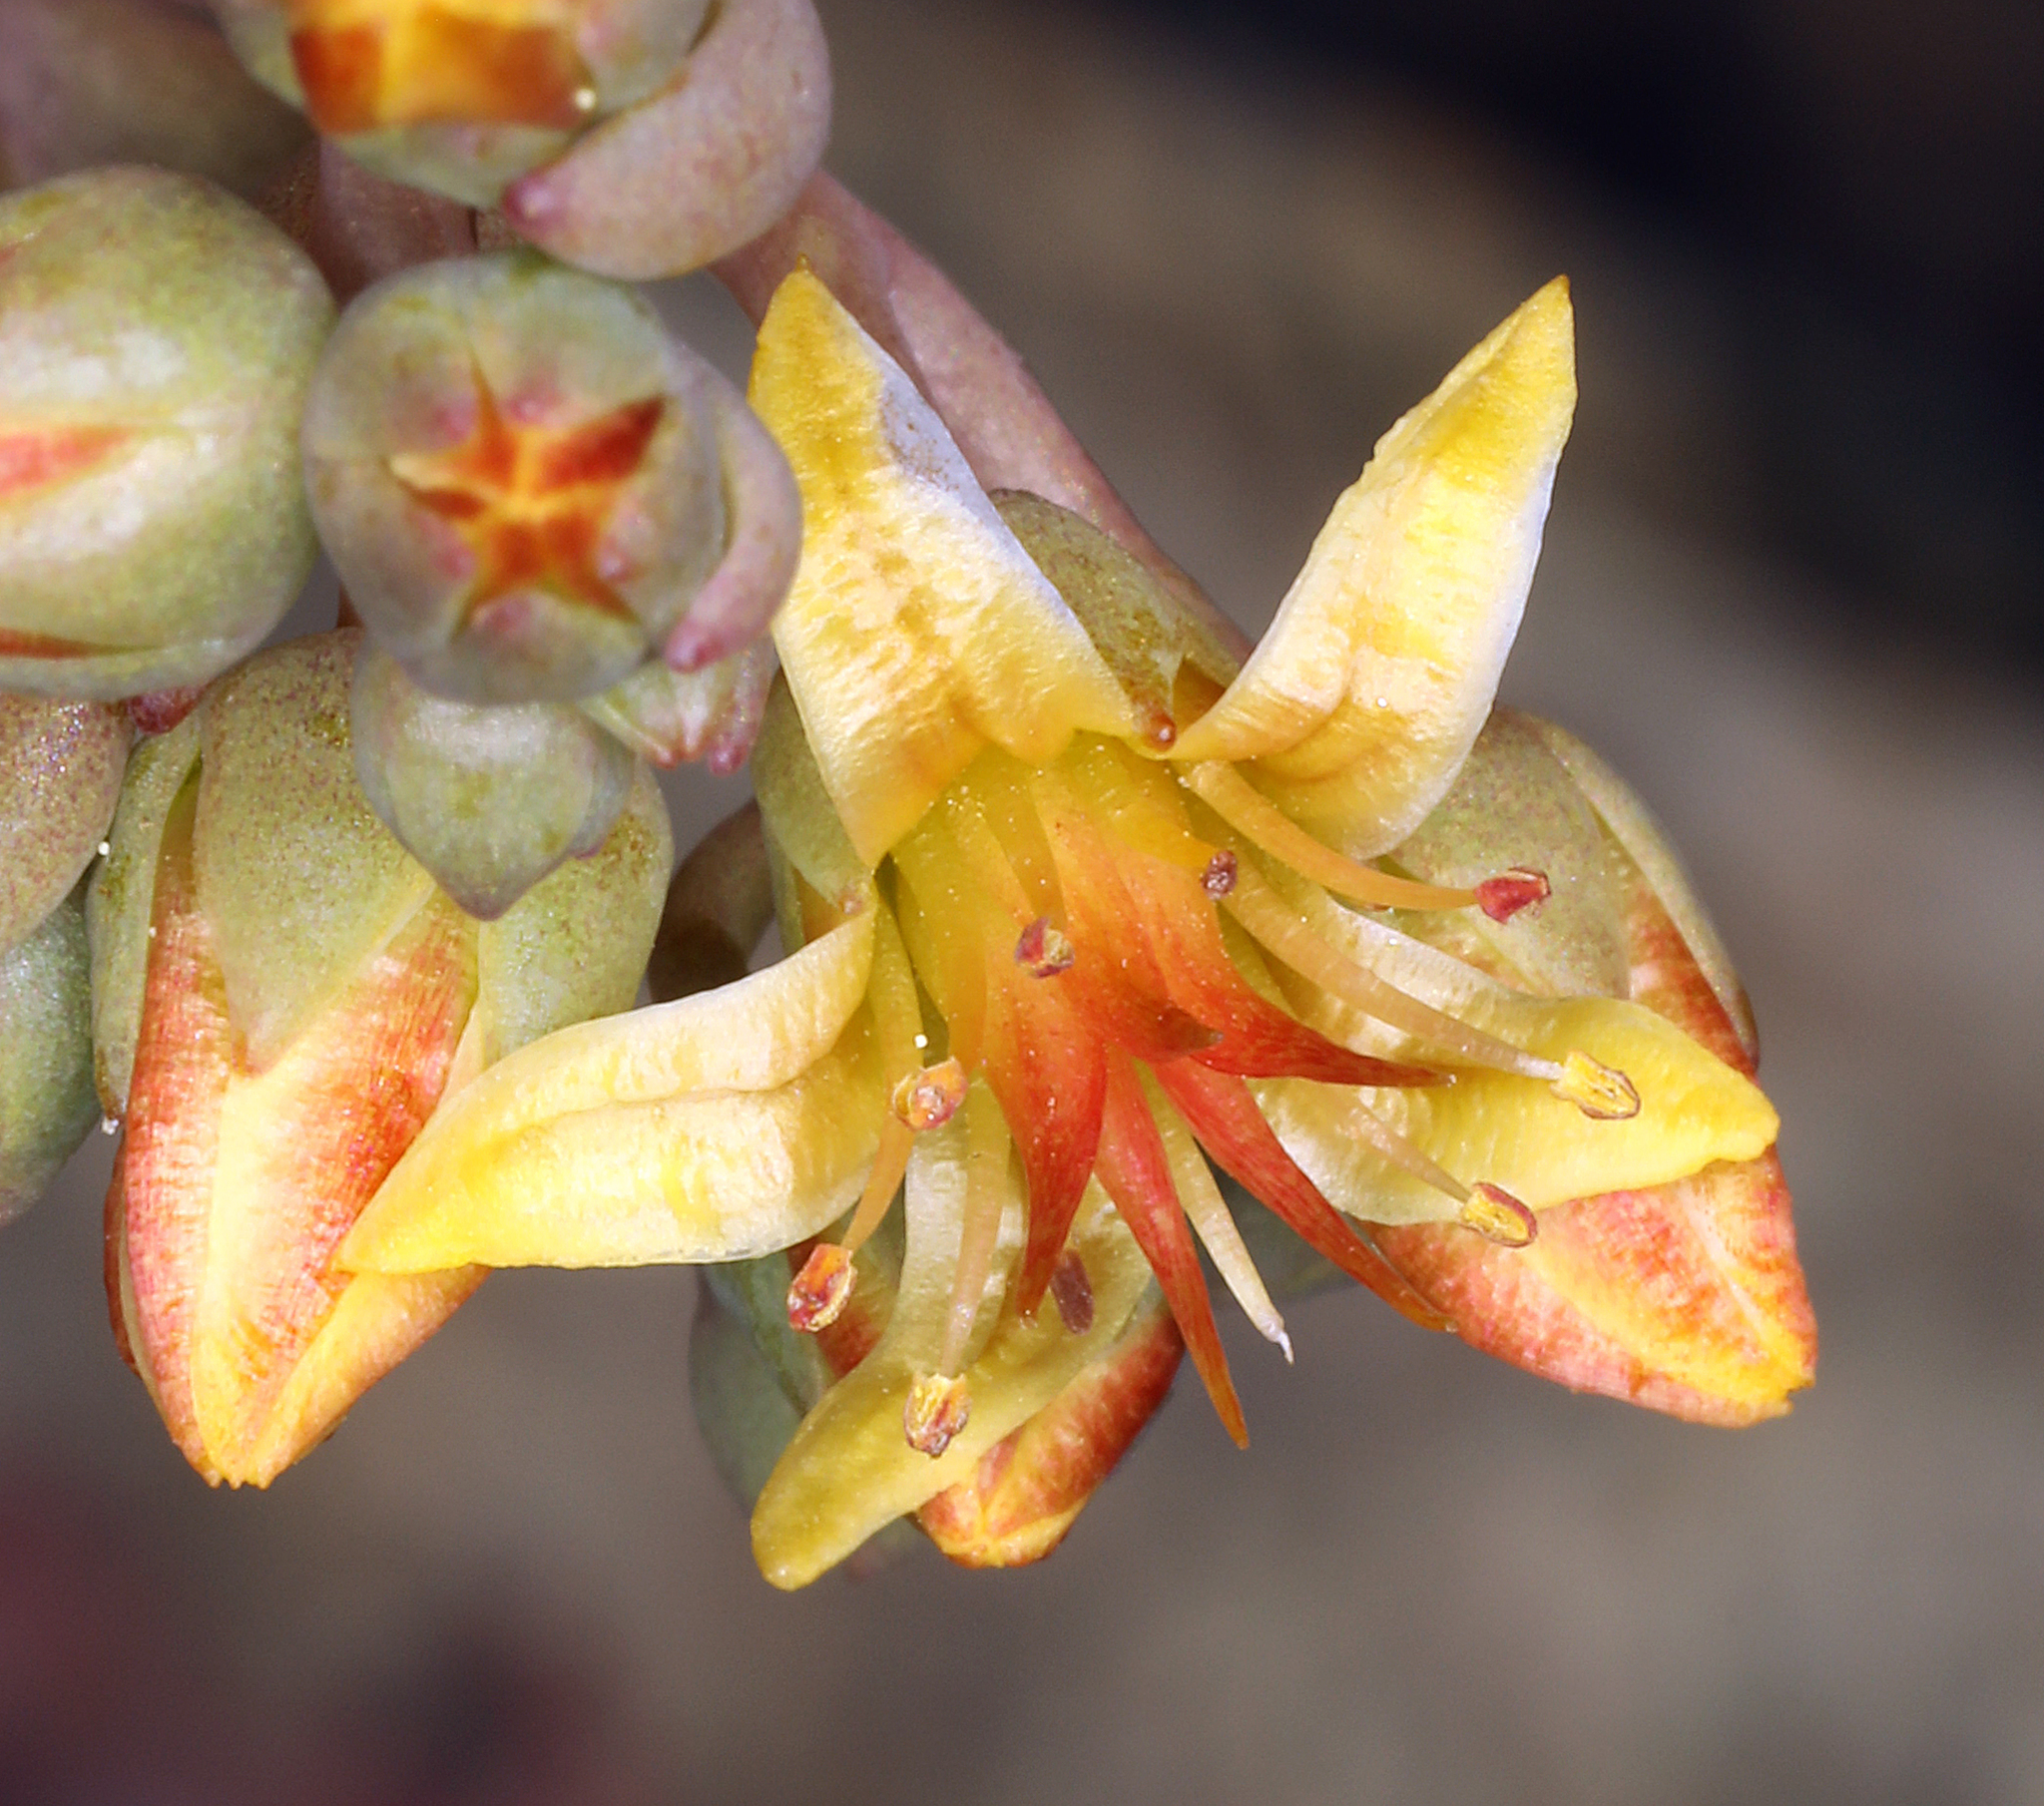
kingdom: Plantae
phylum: Tracheophyta
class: Magnoliopsida
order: Saxifragales
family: Crassulaceae
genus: Sedum
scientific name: Sedum obtusatum
